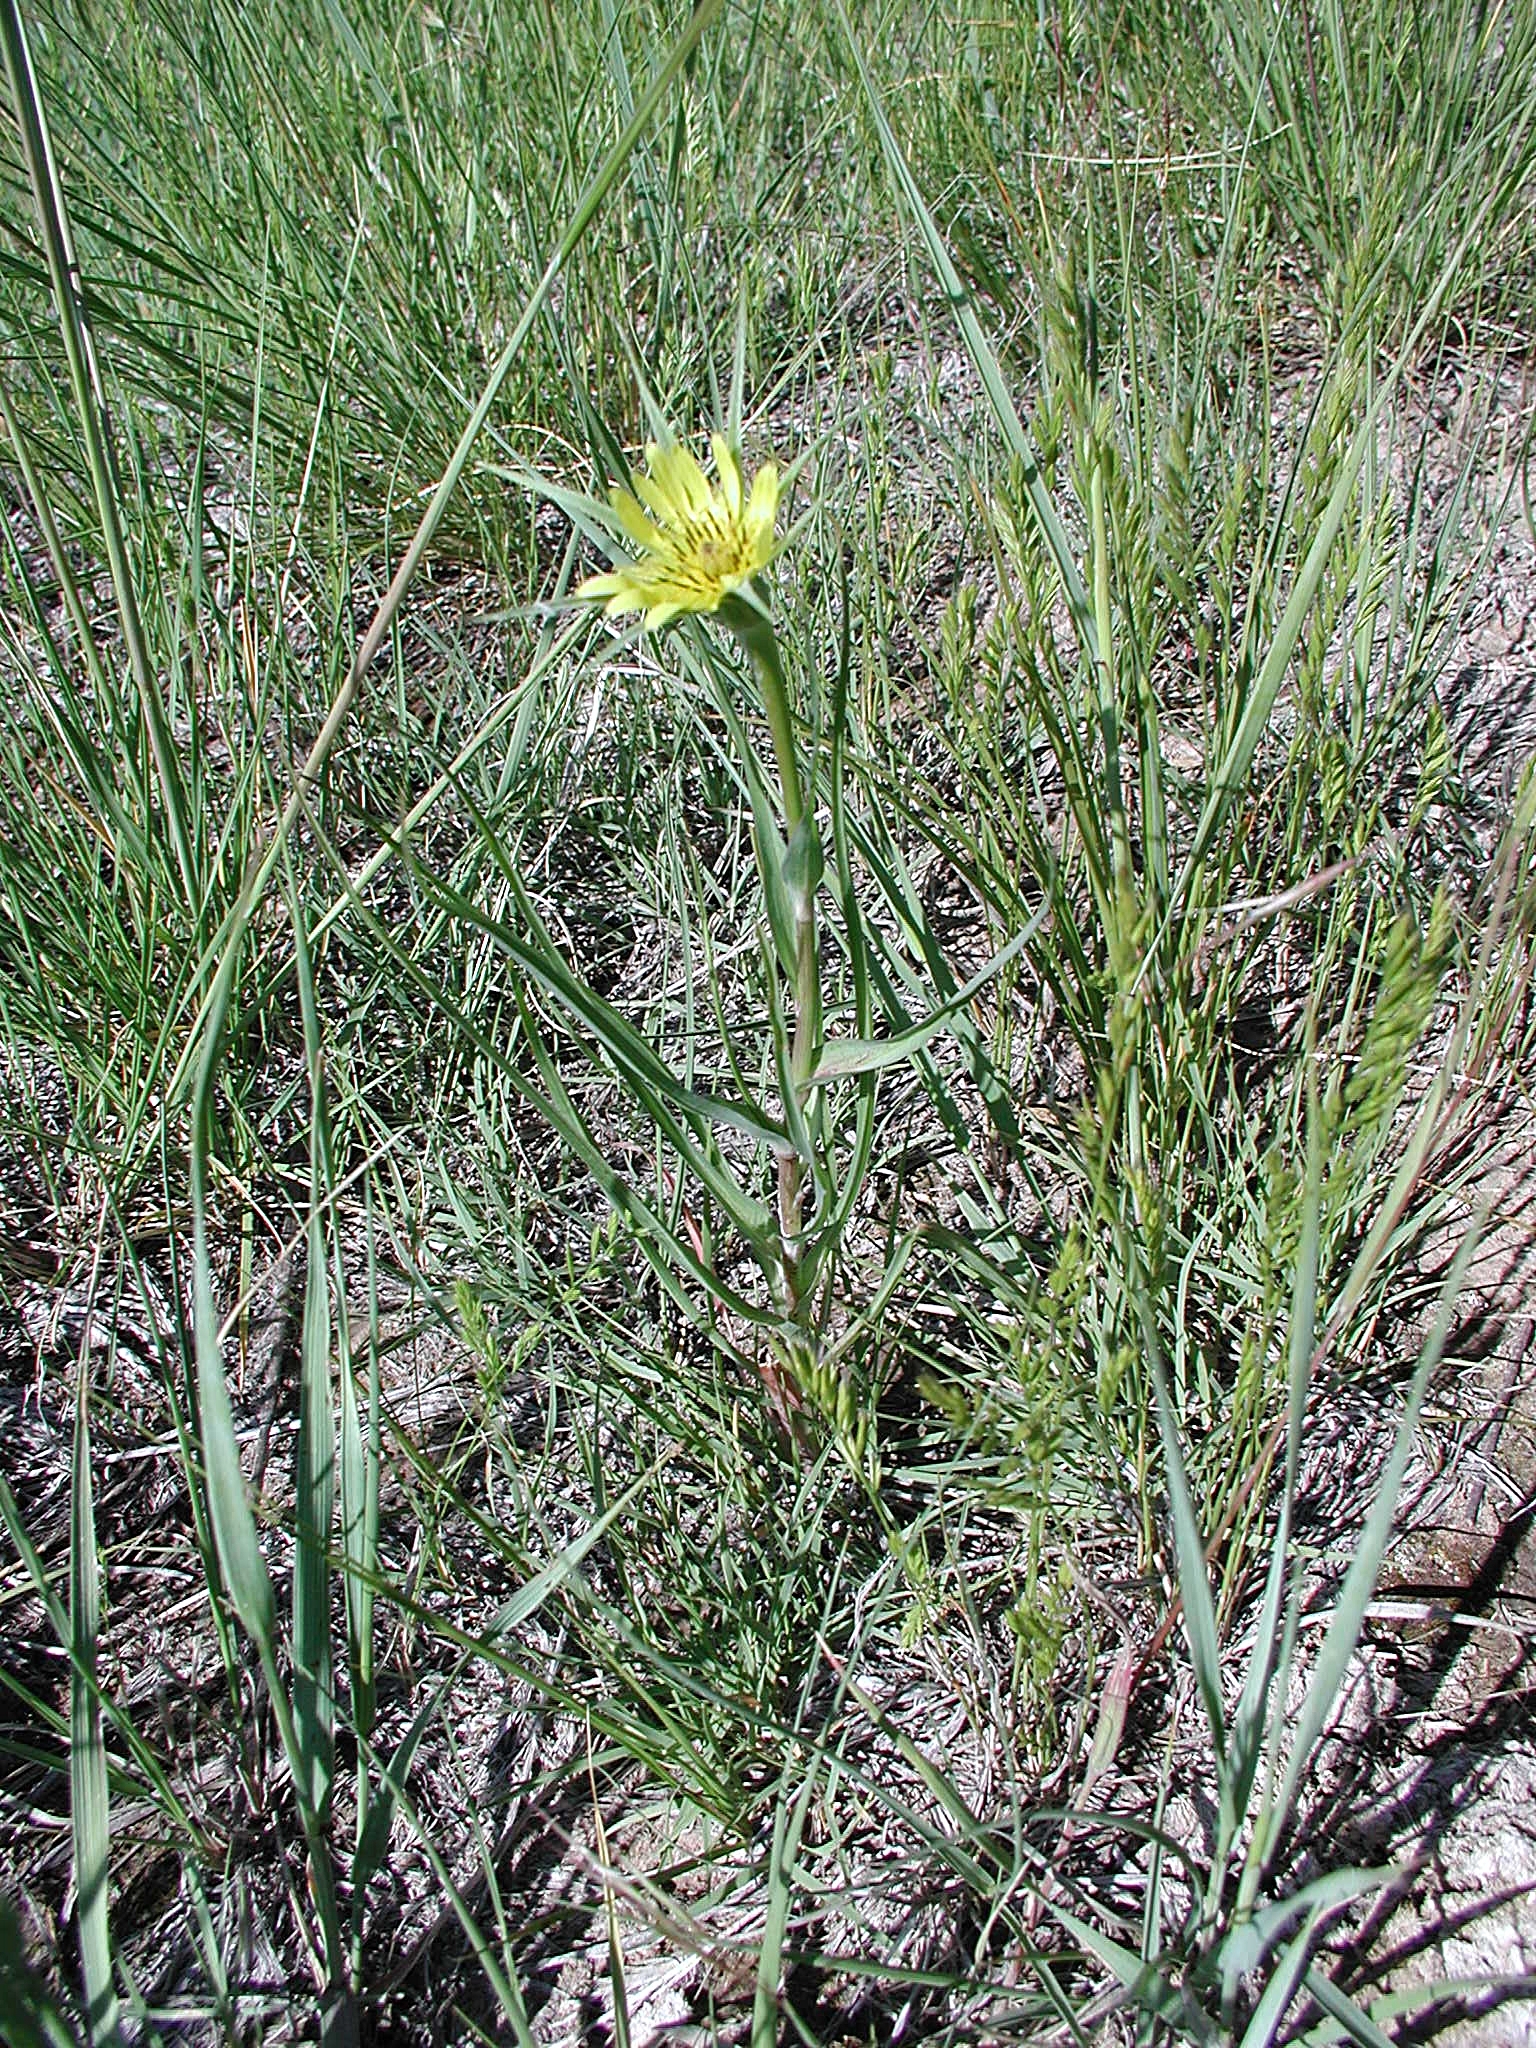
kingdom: Plantae
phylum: Tracheophyta
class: Magnoliopsida
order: Asterales
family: Asteraceae
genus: Tragopogon
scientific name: Tragopogon dubius
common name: Yellow salsify
